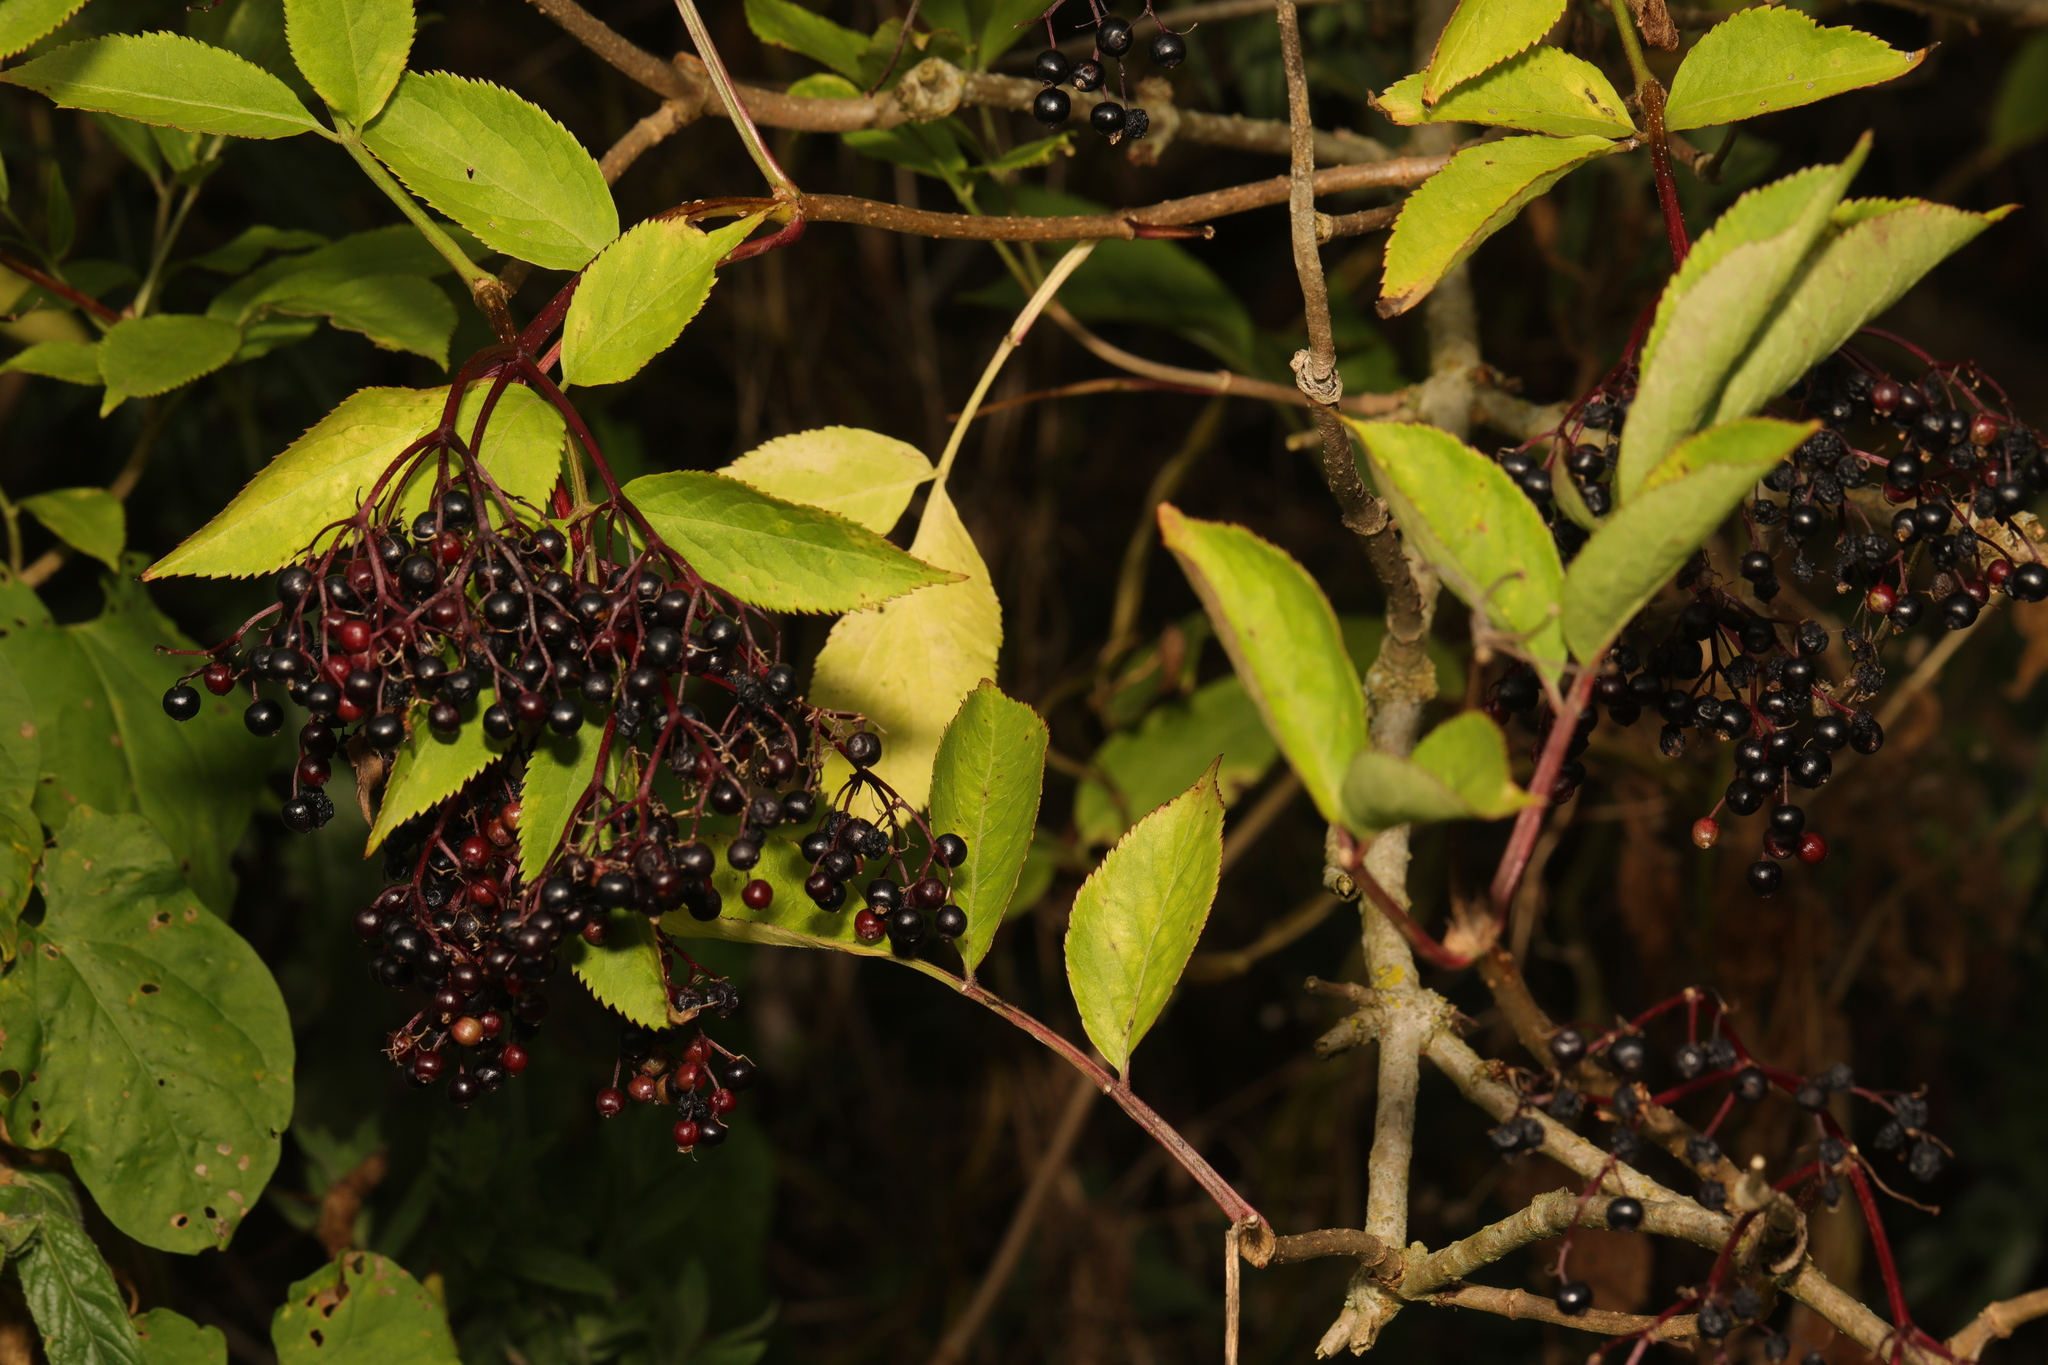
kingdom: Plantae
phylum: Tracheophyta
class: Magnoliopsida
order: Dipsacales
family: Viburnaceae
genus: Sambucus
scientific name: Sambucus nigra
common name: Elder
